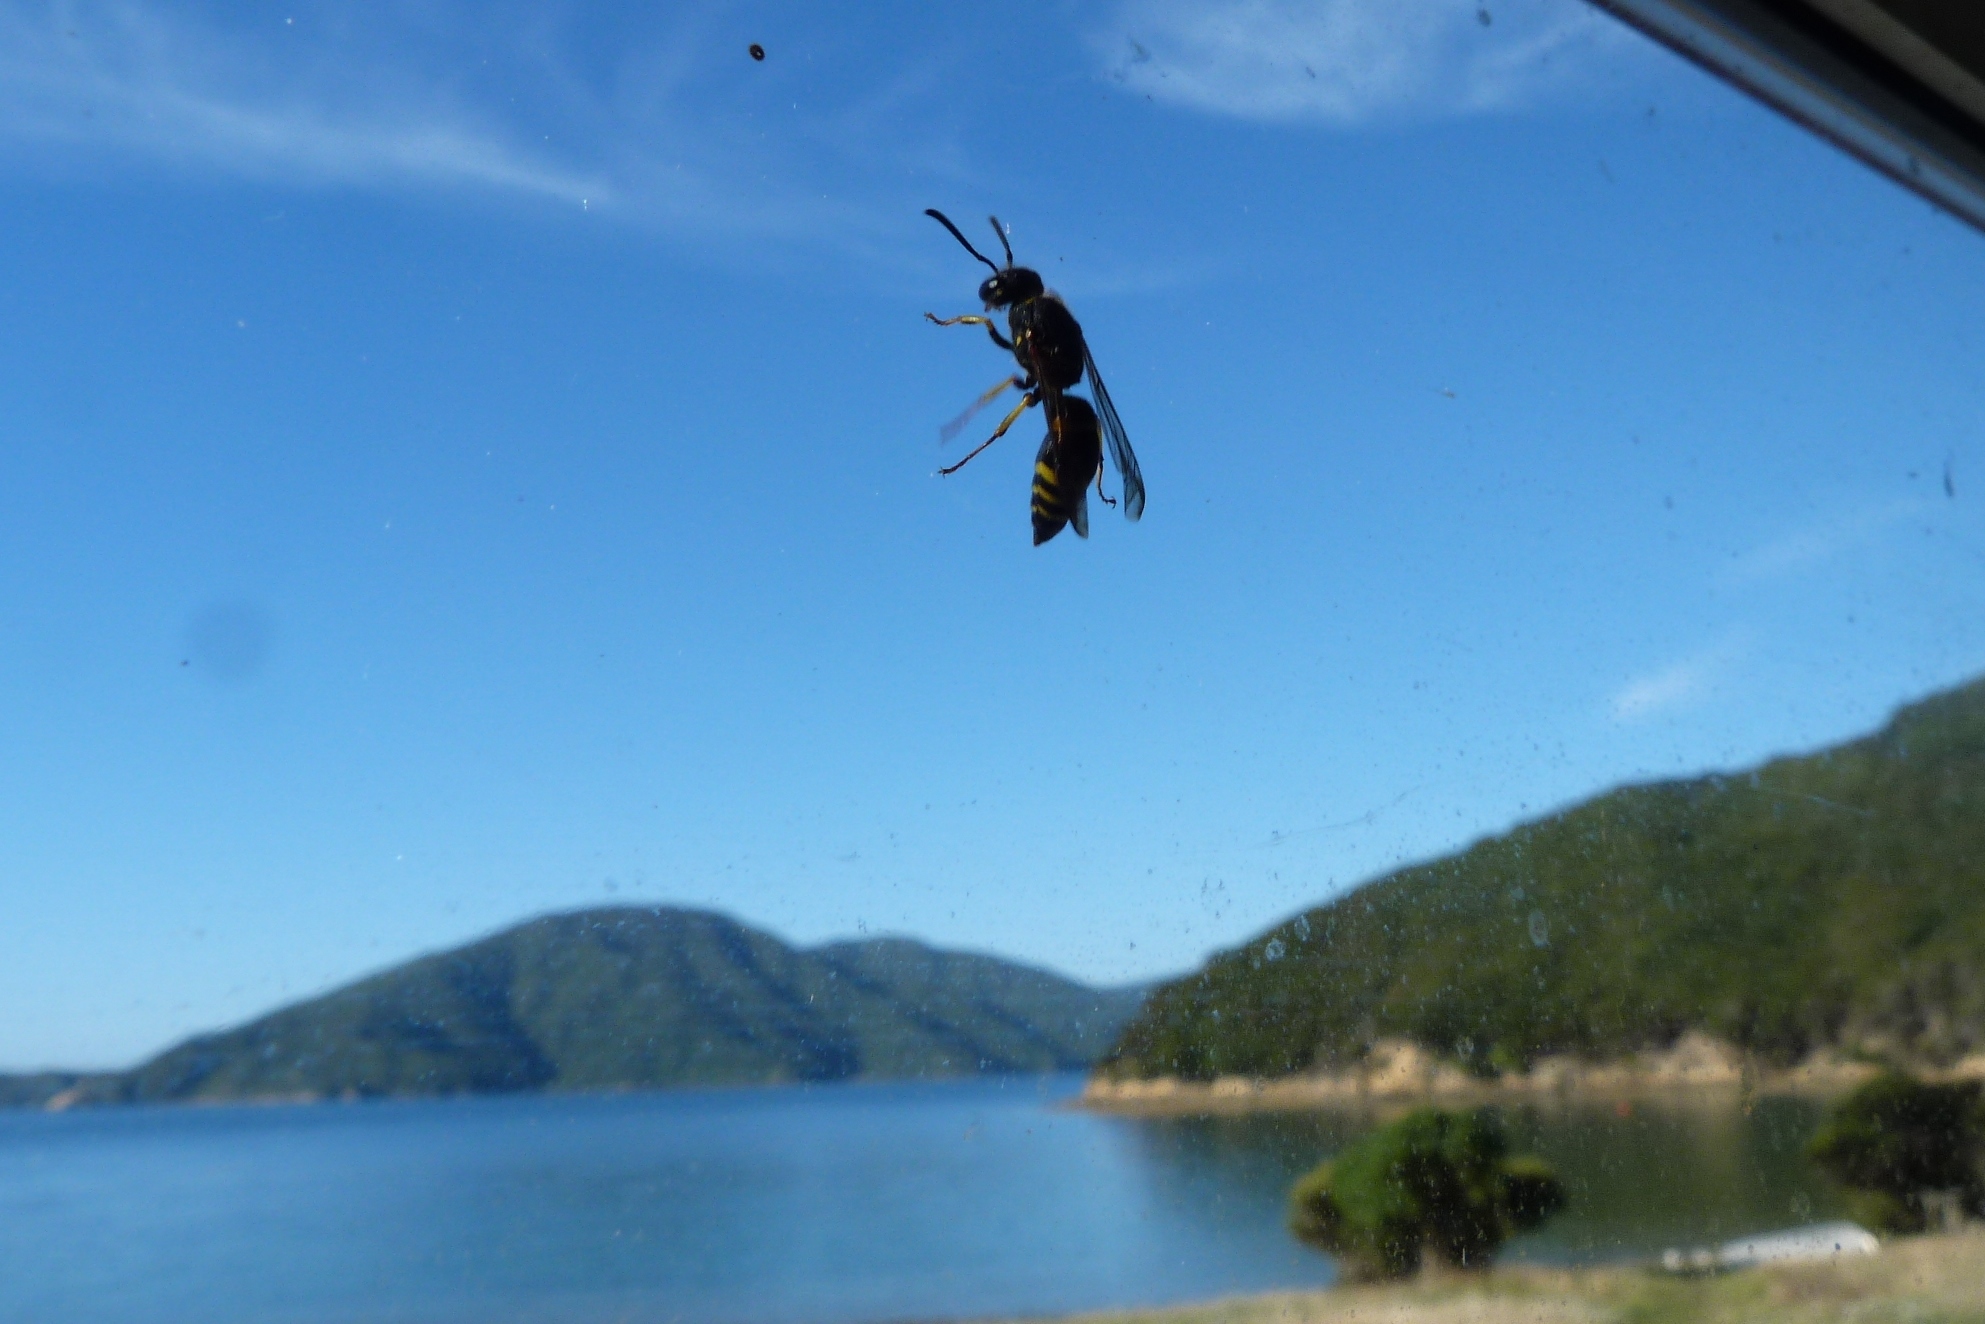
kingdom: Animalia
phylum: Arthropoda
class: Insecta
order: Hymenoptera
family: Vespidae
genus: Ancistrocerus
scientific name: Ancistrocerus gazella
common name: European tube wasp
